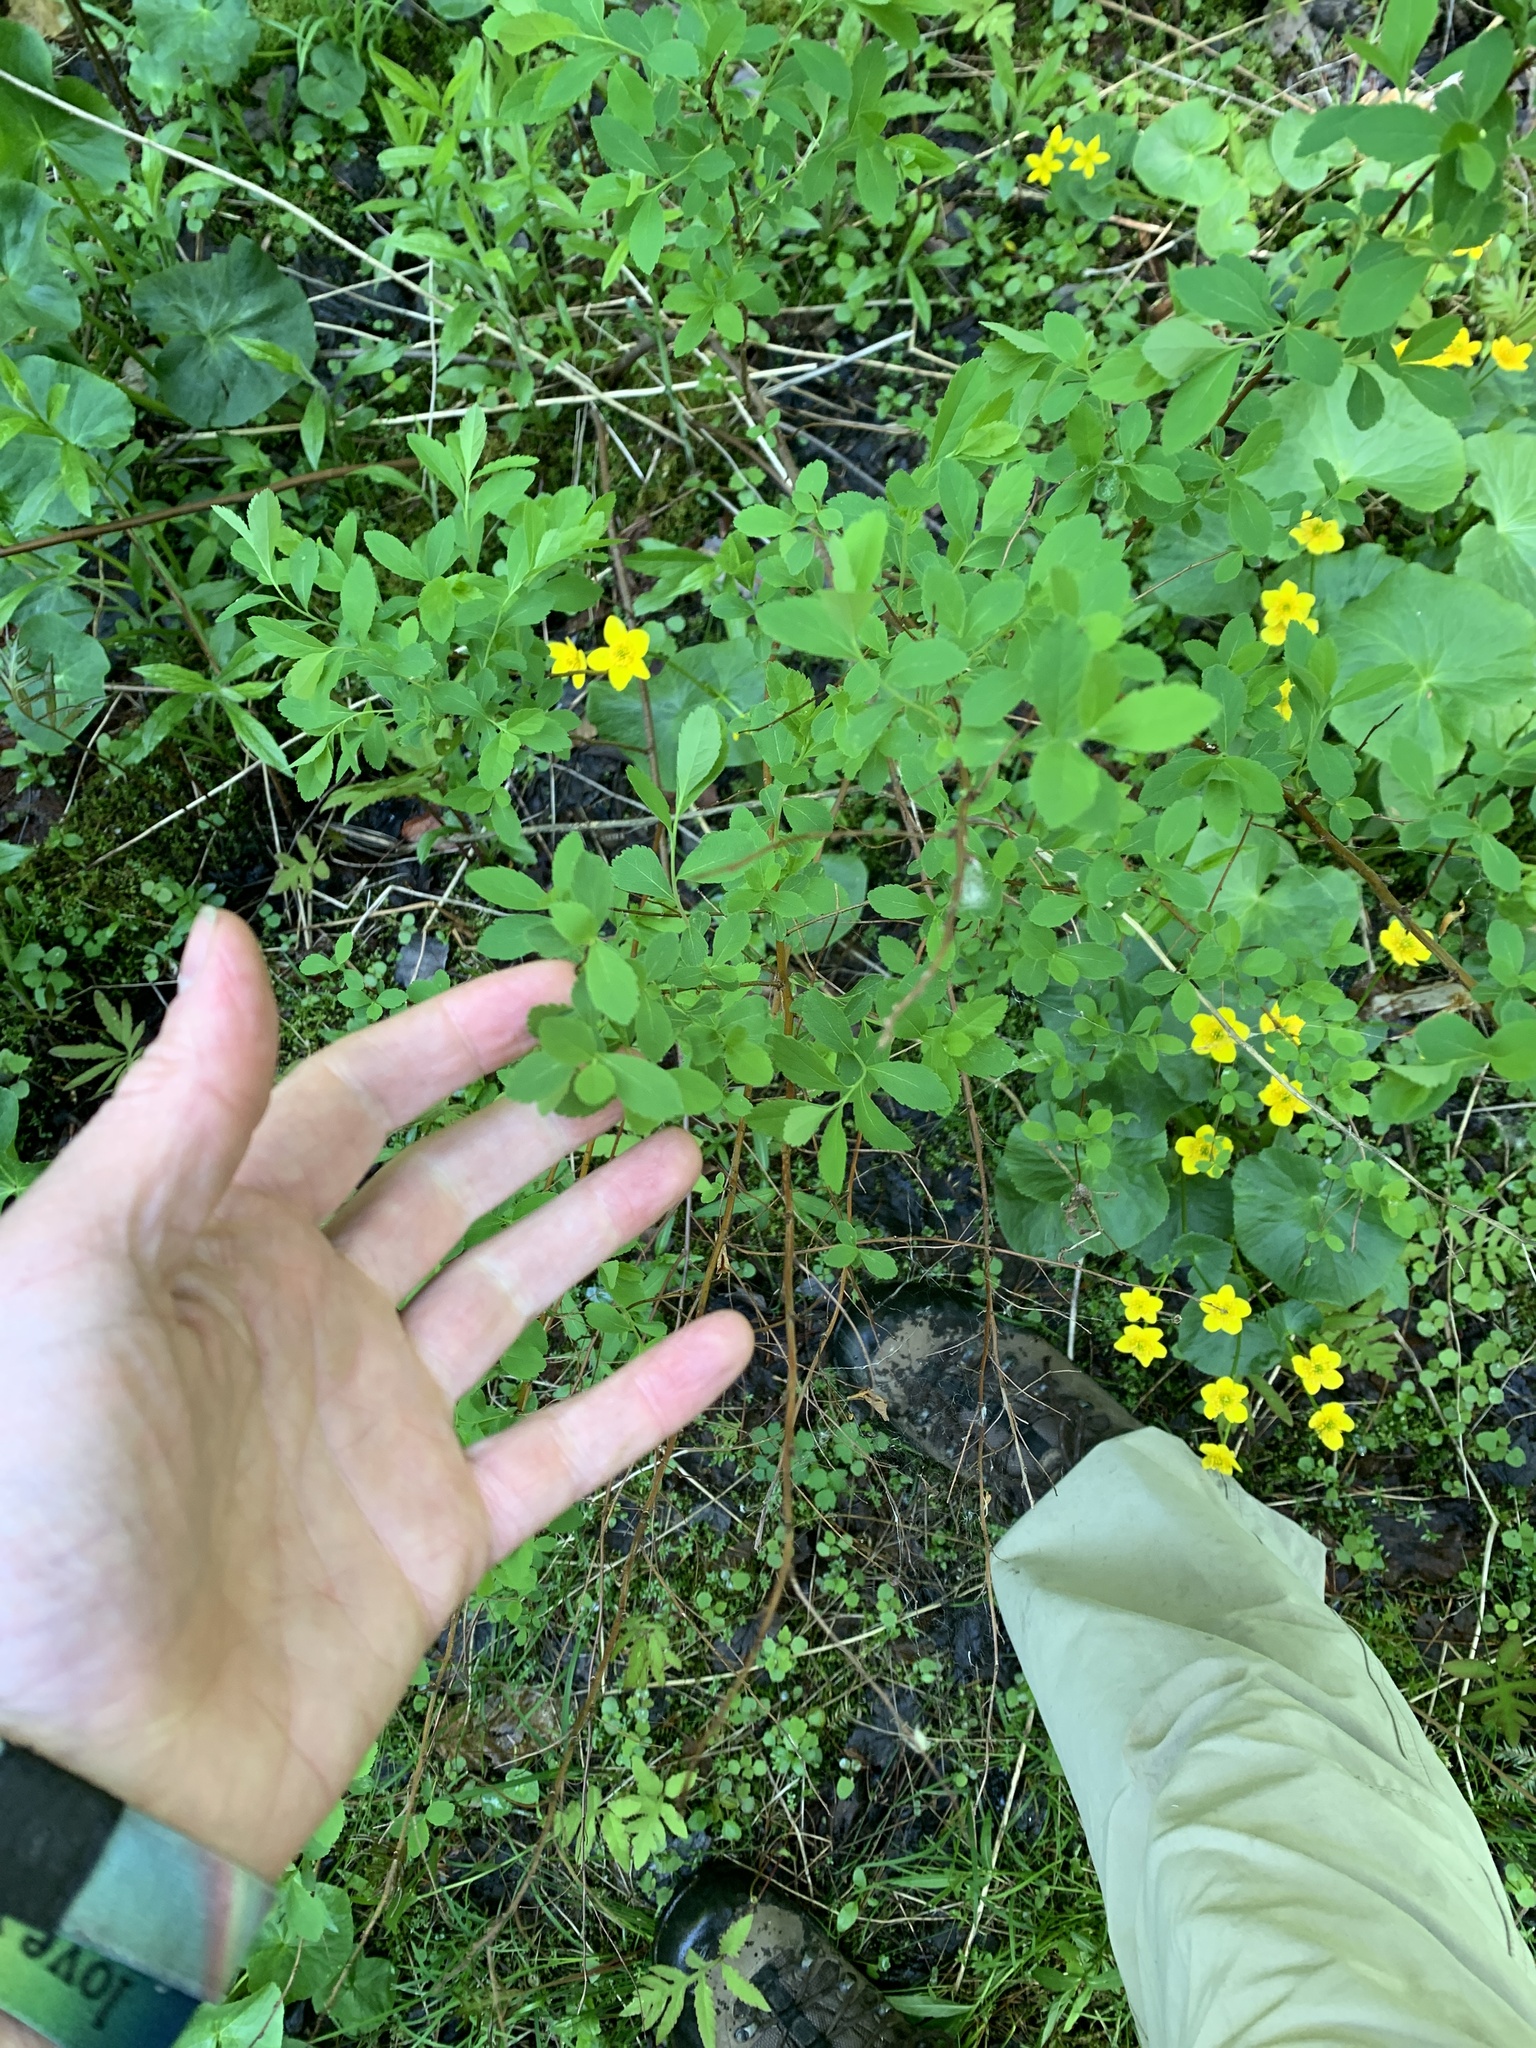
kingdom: Plantae
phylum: Tracheophyta
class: Magnoliopsida
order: Rosales
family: Rosaceae
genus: Spiraea
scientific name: Spiraea alba
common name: Pale bridewort
